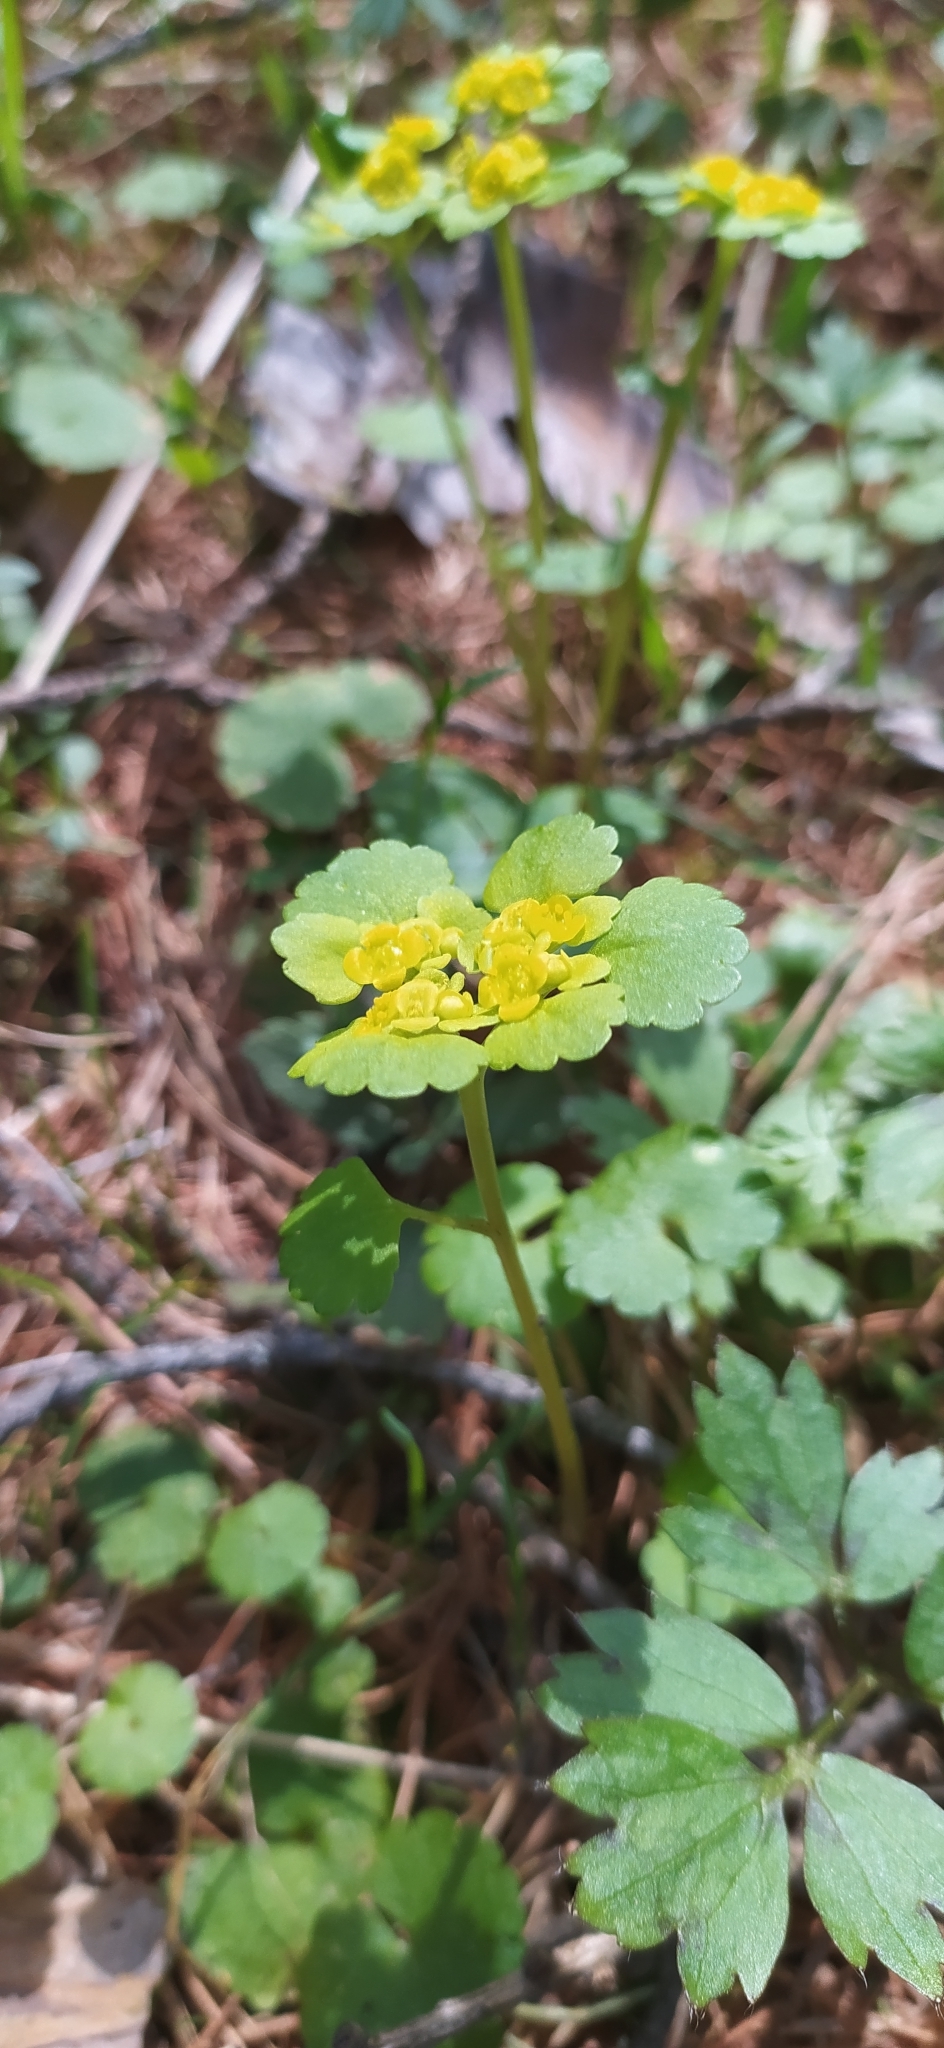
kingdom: Plantae
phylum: Tracheophyta
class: Magnoliopsida
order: Saxifragales
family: Saxifragaceae
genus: Chrysosplenium
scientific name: Chrysosplenium alternifolium
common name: Alternate-leaved golden-saxifrage
